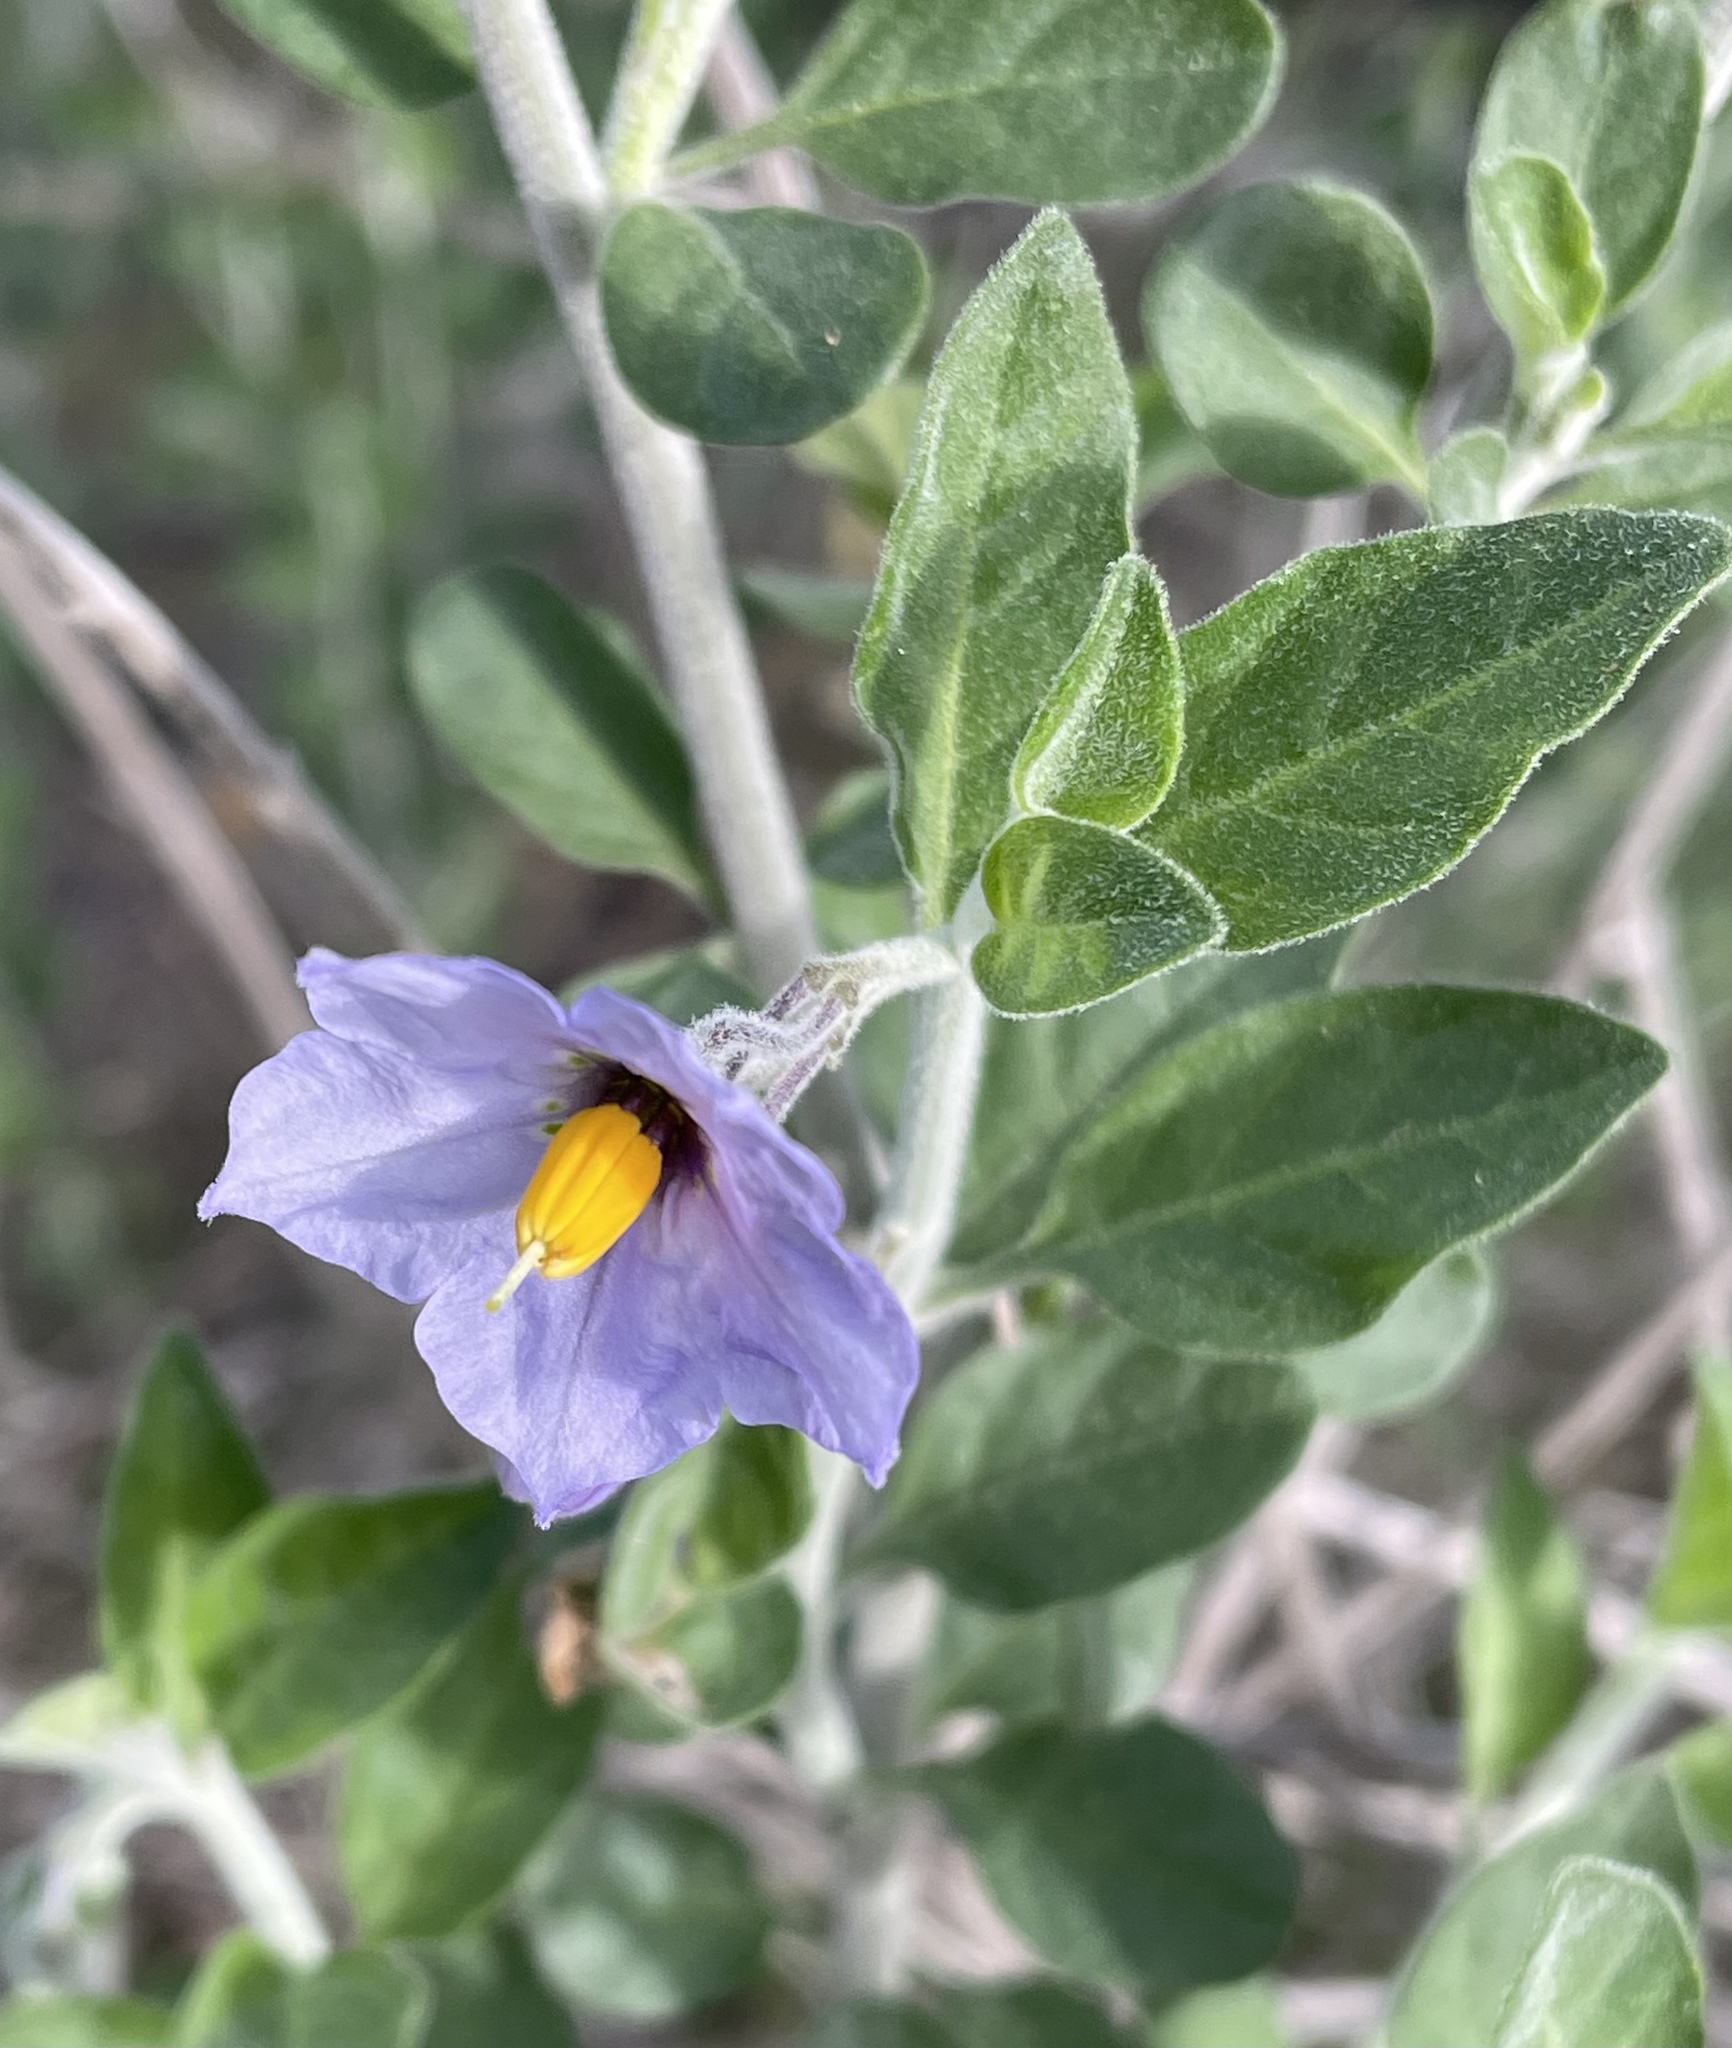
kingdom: Plantae
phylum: Tracheophyta
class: Magnoliopsida
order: Solanales
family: Solanaceae
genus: Solanum
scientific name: Solanum umbelliferum
